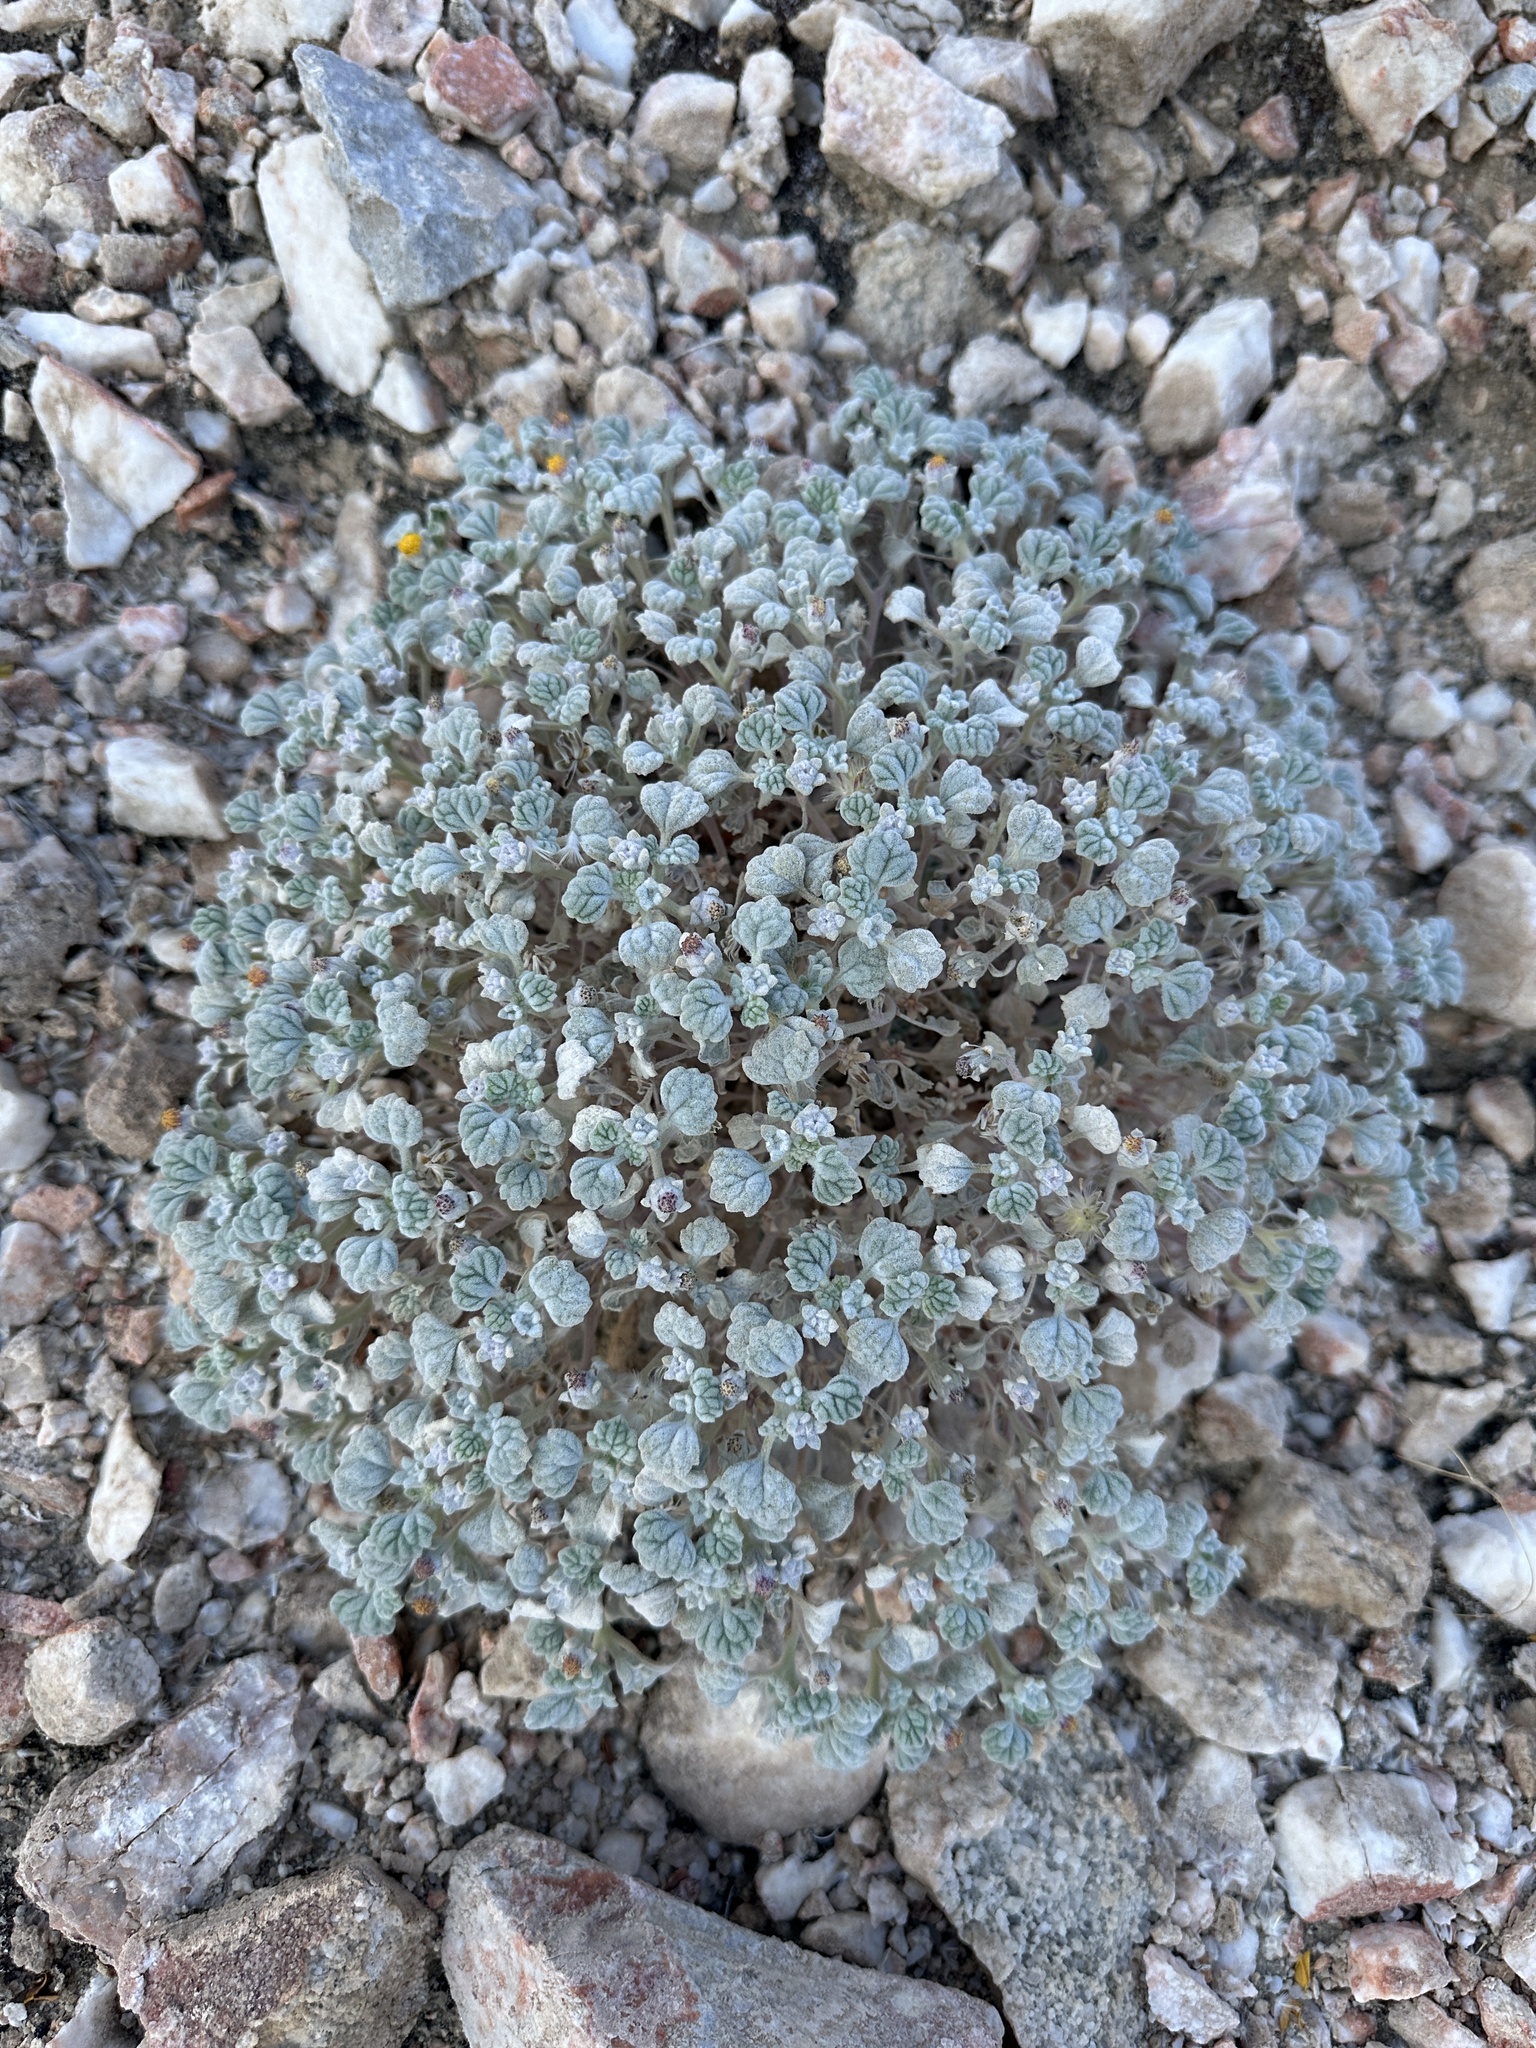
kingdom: Plantae
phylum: Tracheophyta
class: Magnoliopsida
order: Asterales
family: Asteraceae
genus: Psathyrotes
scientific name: Psathyrotes ramosissima
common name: Turtleback
